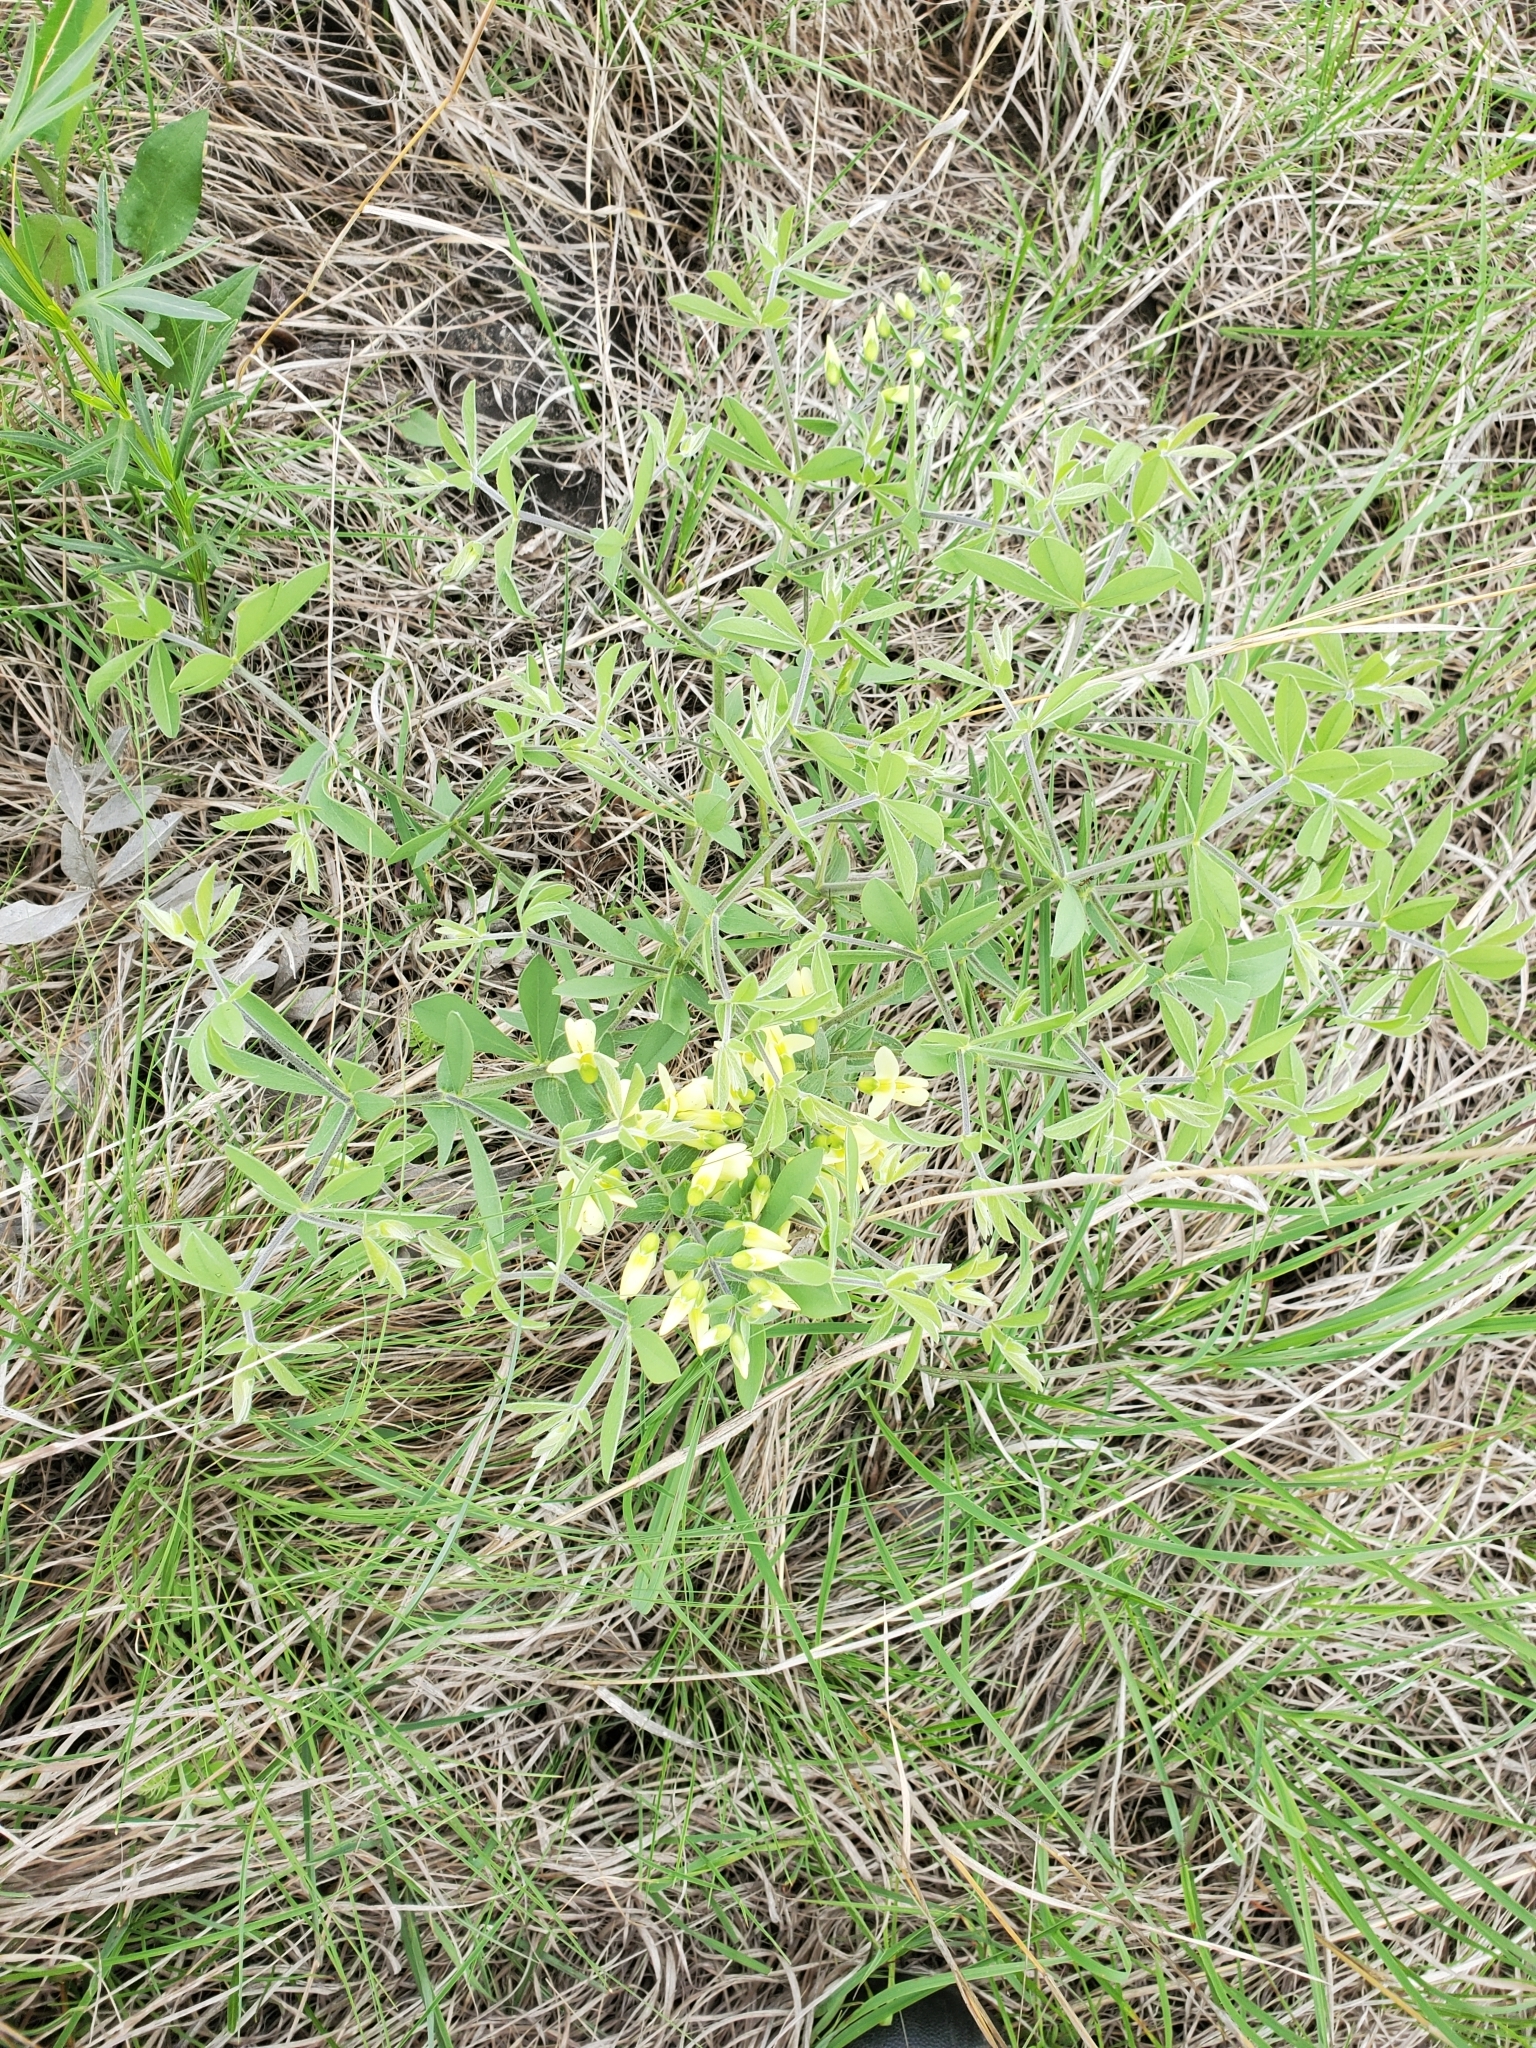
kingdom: Plantae
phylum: Tracheophyta
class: Magnoliopsida
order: Fabales
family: Fabaceae
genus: Baptisia
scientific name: Baptisia bracteata
